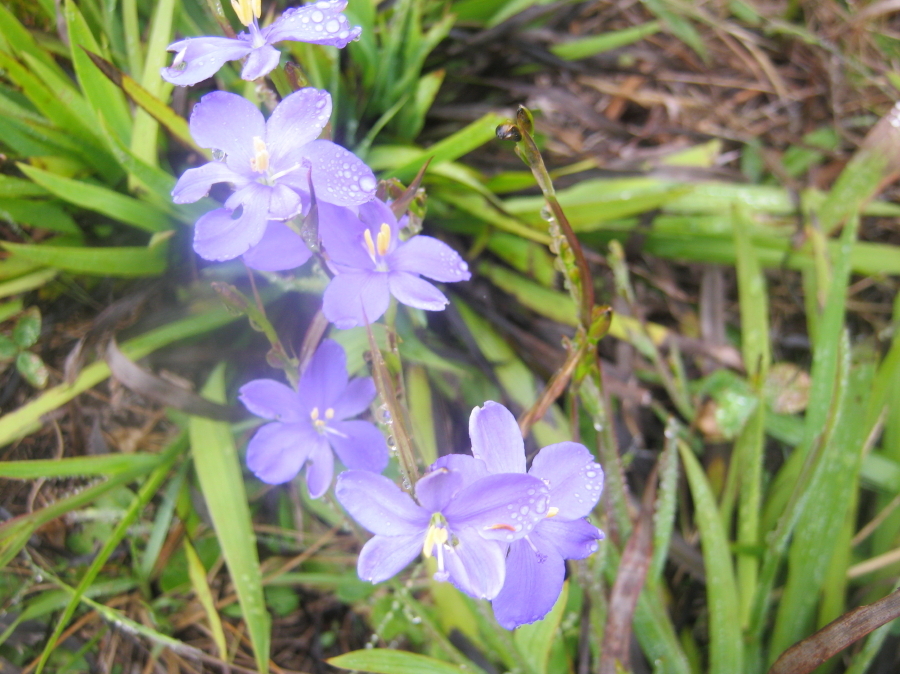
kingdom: Plantae
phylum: Tracheophyta
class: Liliopsida
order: Asparagales
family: Iridaceae
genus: Aristea
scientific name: Aristea ensifolia
